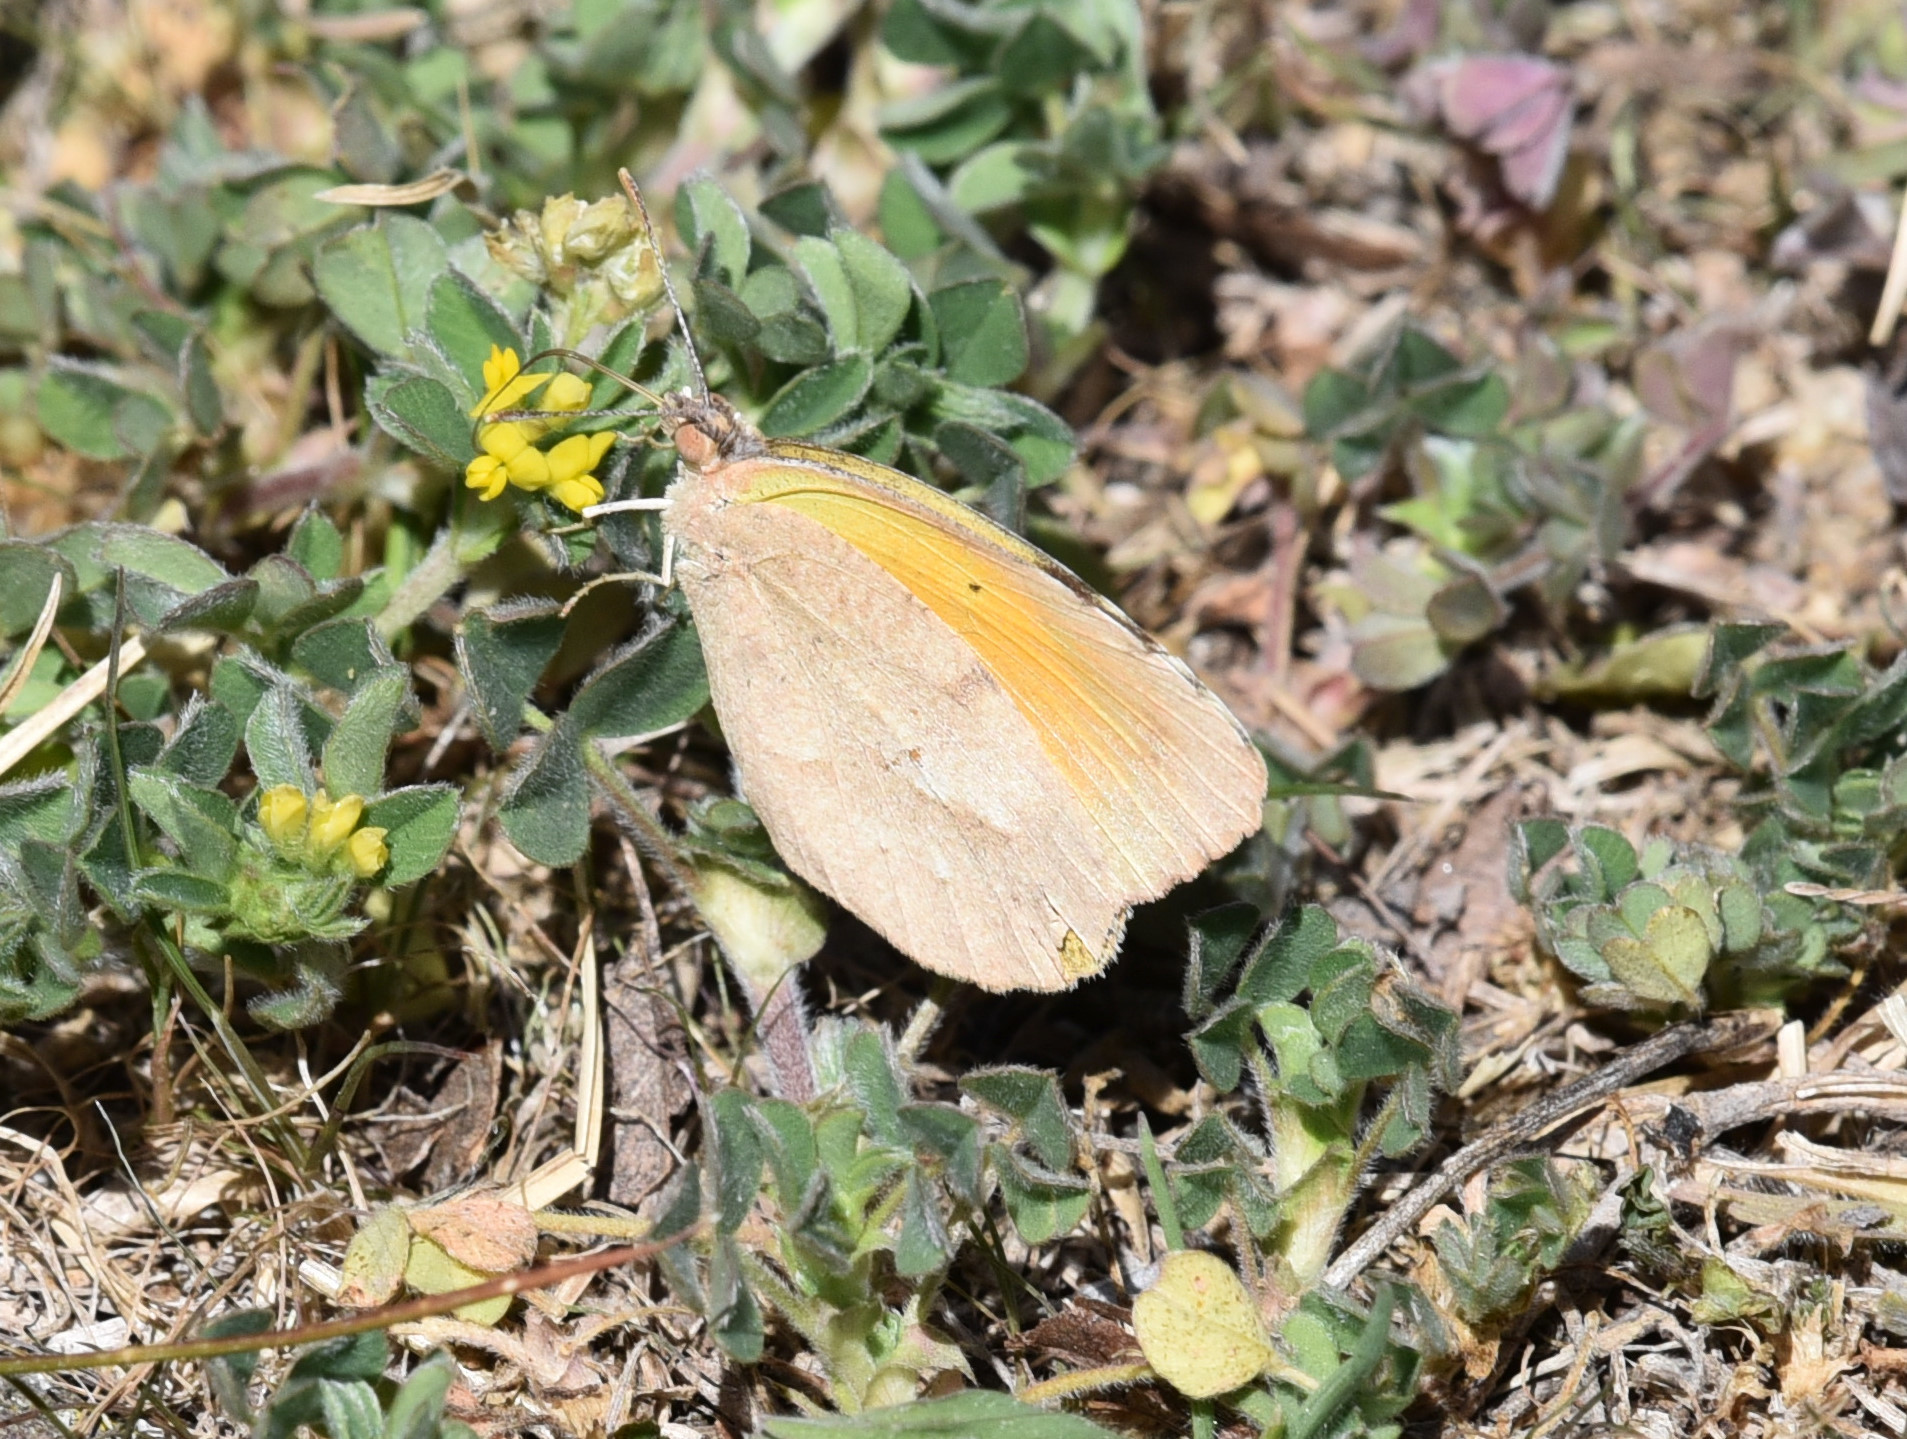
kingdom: Animalia
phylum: Arthropoda
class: Insecta
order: Lepidoptera
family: Pieridae
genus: Abaeis
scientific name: Abaeis nicippe
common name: Sleepy orange
